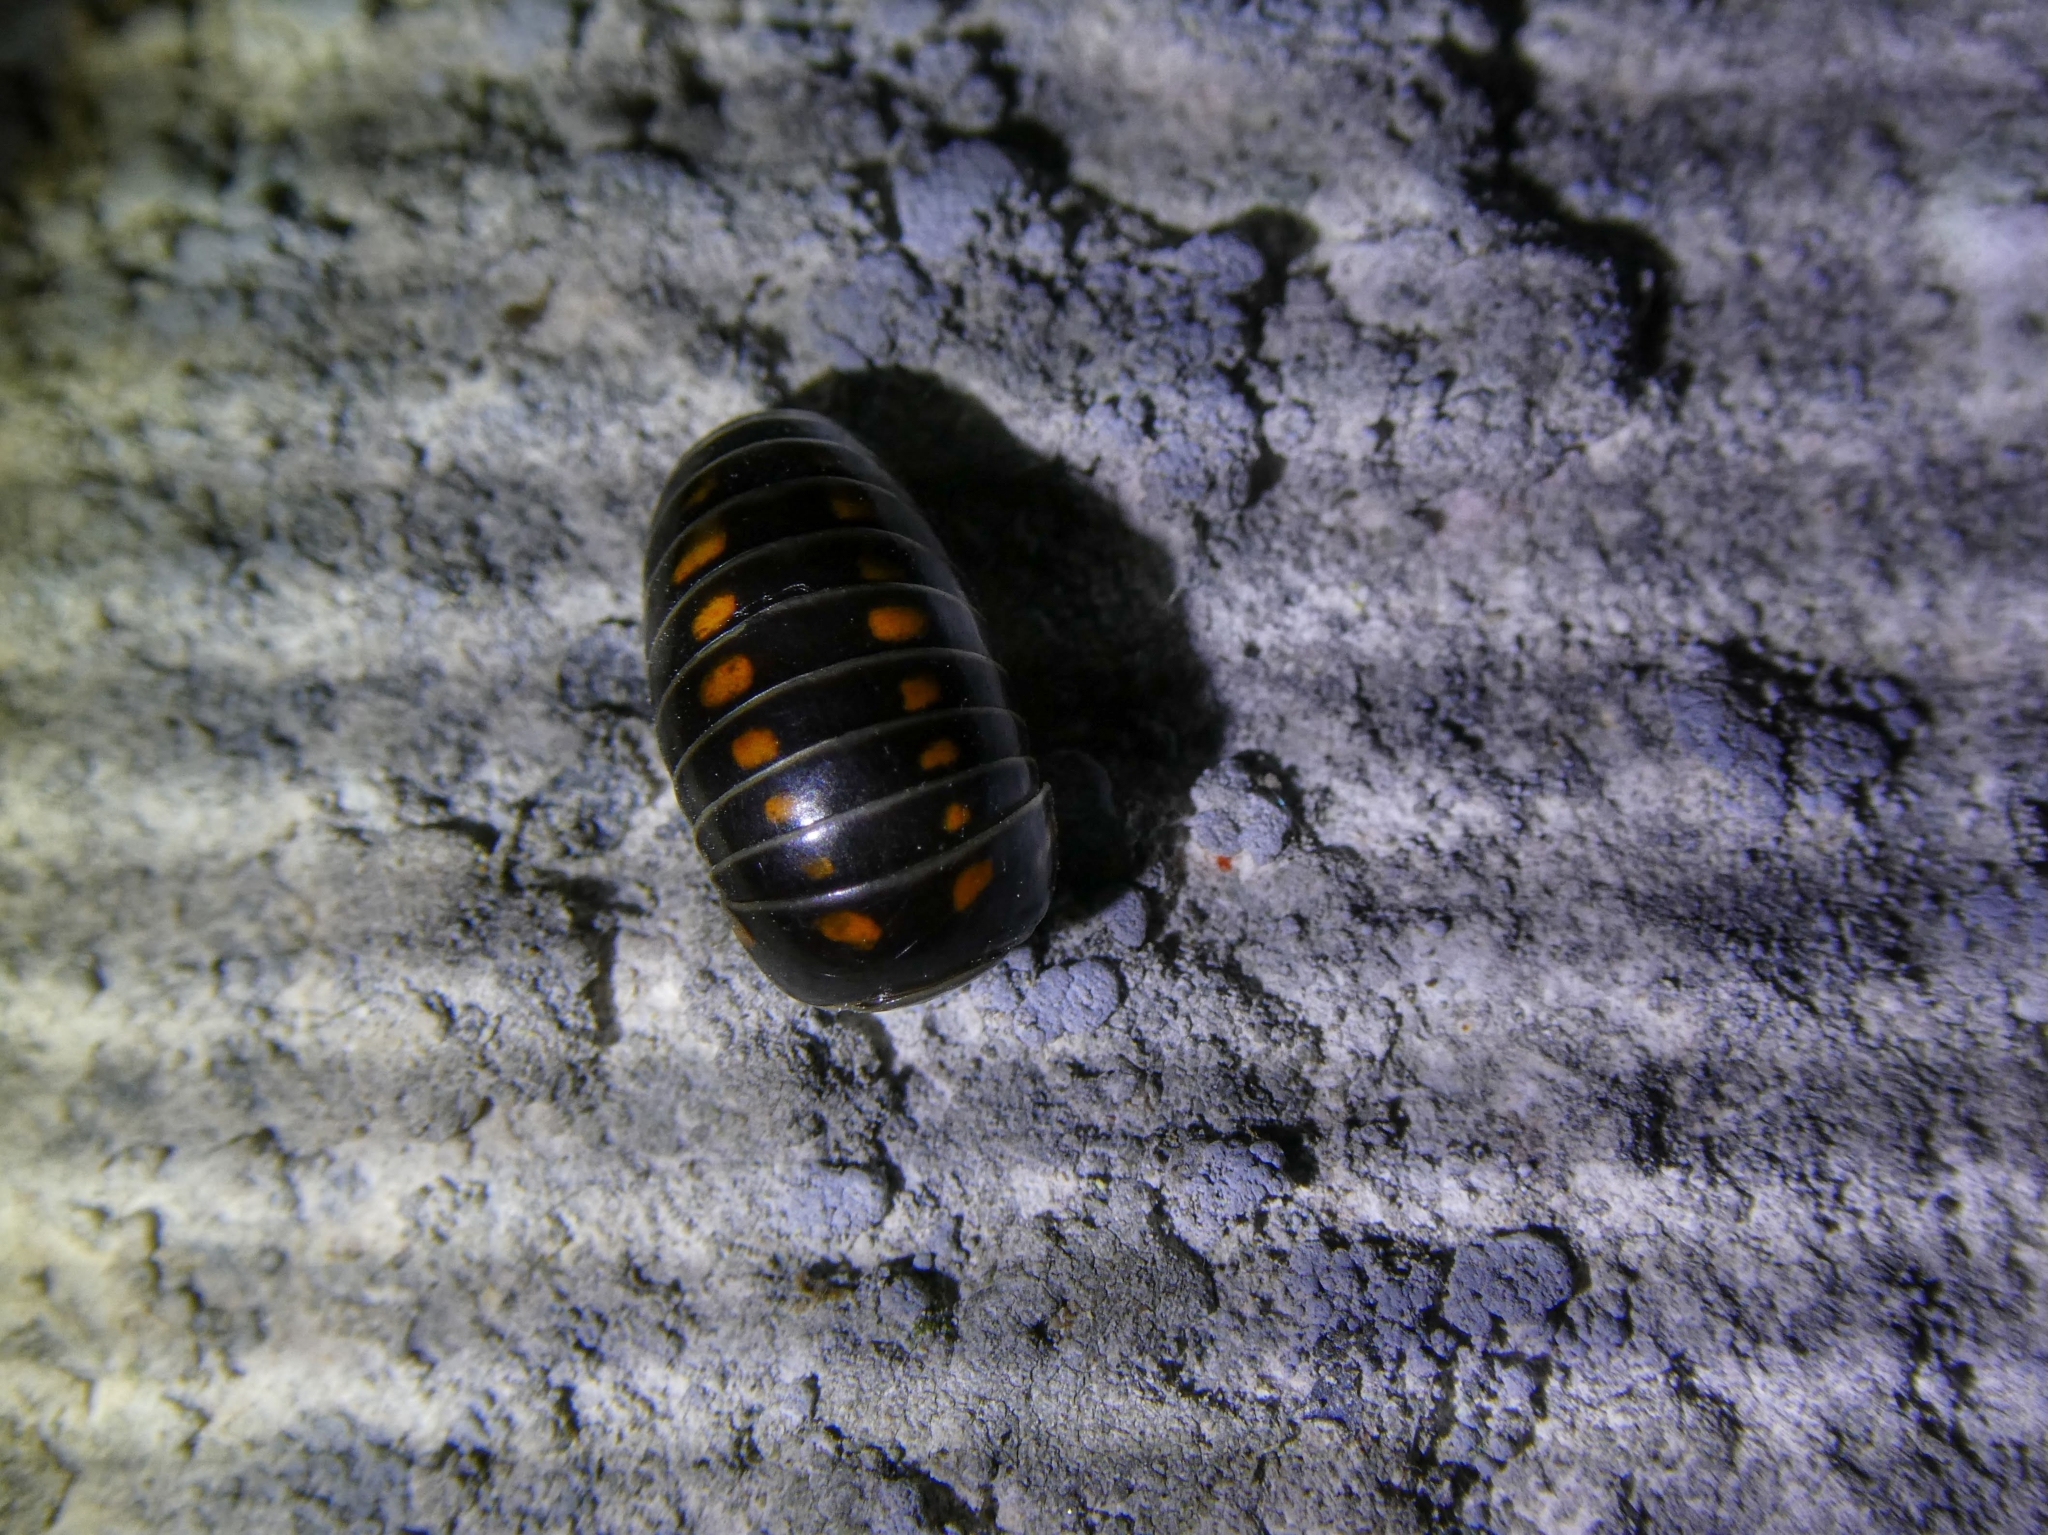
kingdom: Animalia
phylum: Arthropoda
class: Diplopoda
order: Glomerida
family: Glomeridae
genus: Glomeris
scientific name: Glomeris pustulata
